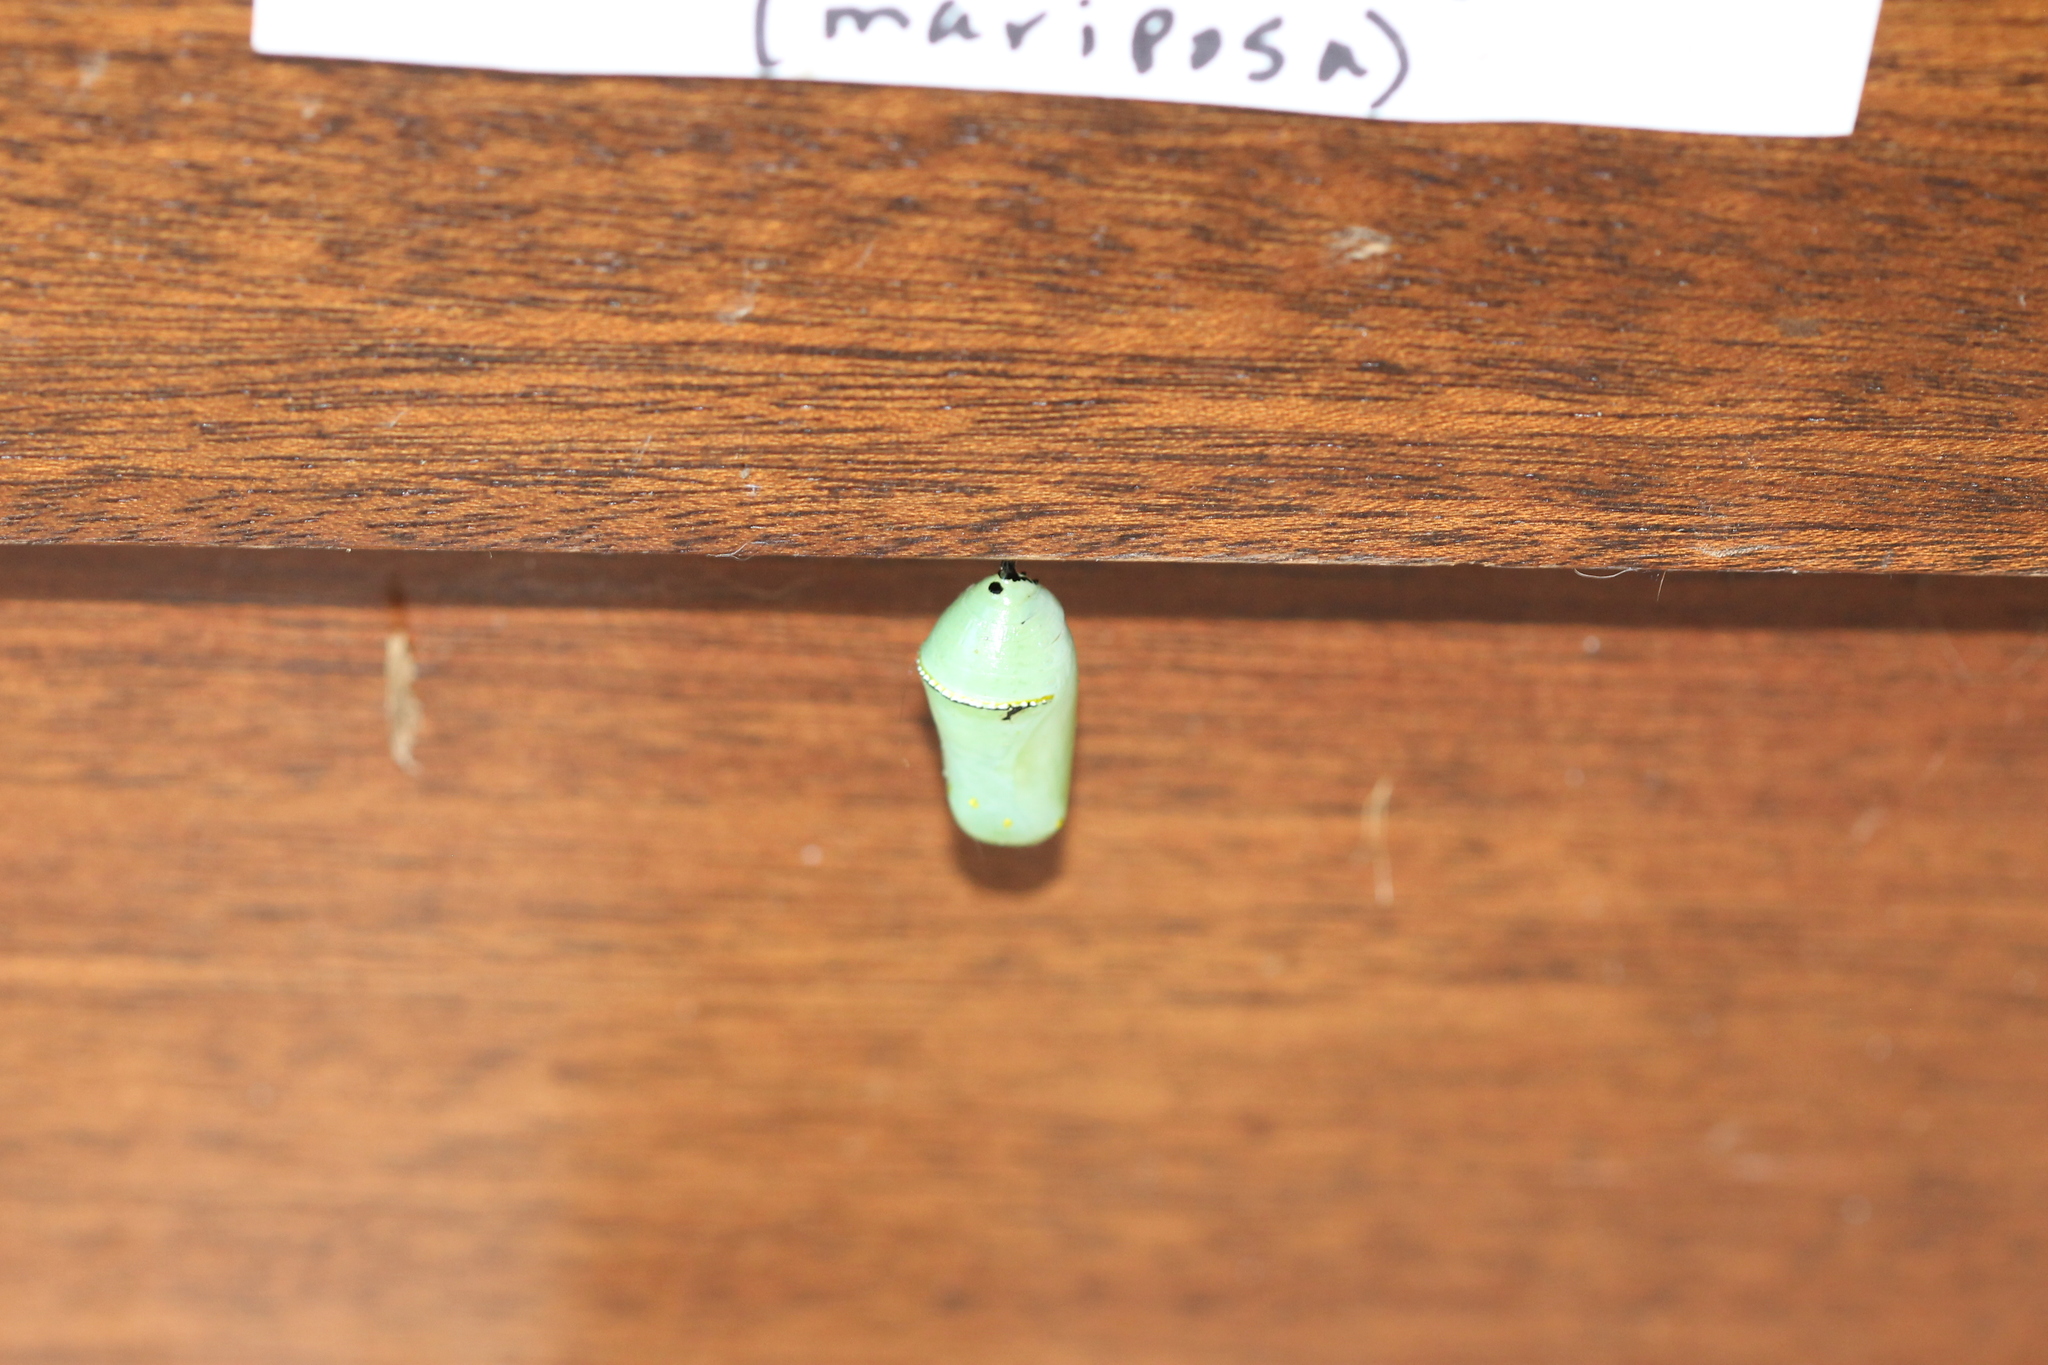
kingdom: Animalia
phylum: Arthropoda
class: Insecta
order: Lepidoptera
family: Nymphalidae
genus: Danaus
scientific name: Danaus plexippus
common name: Monarch
